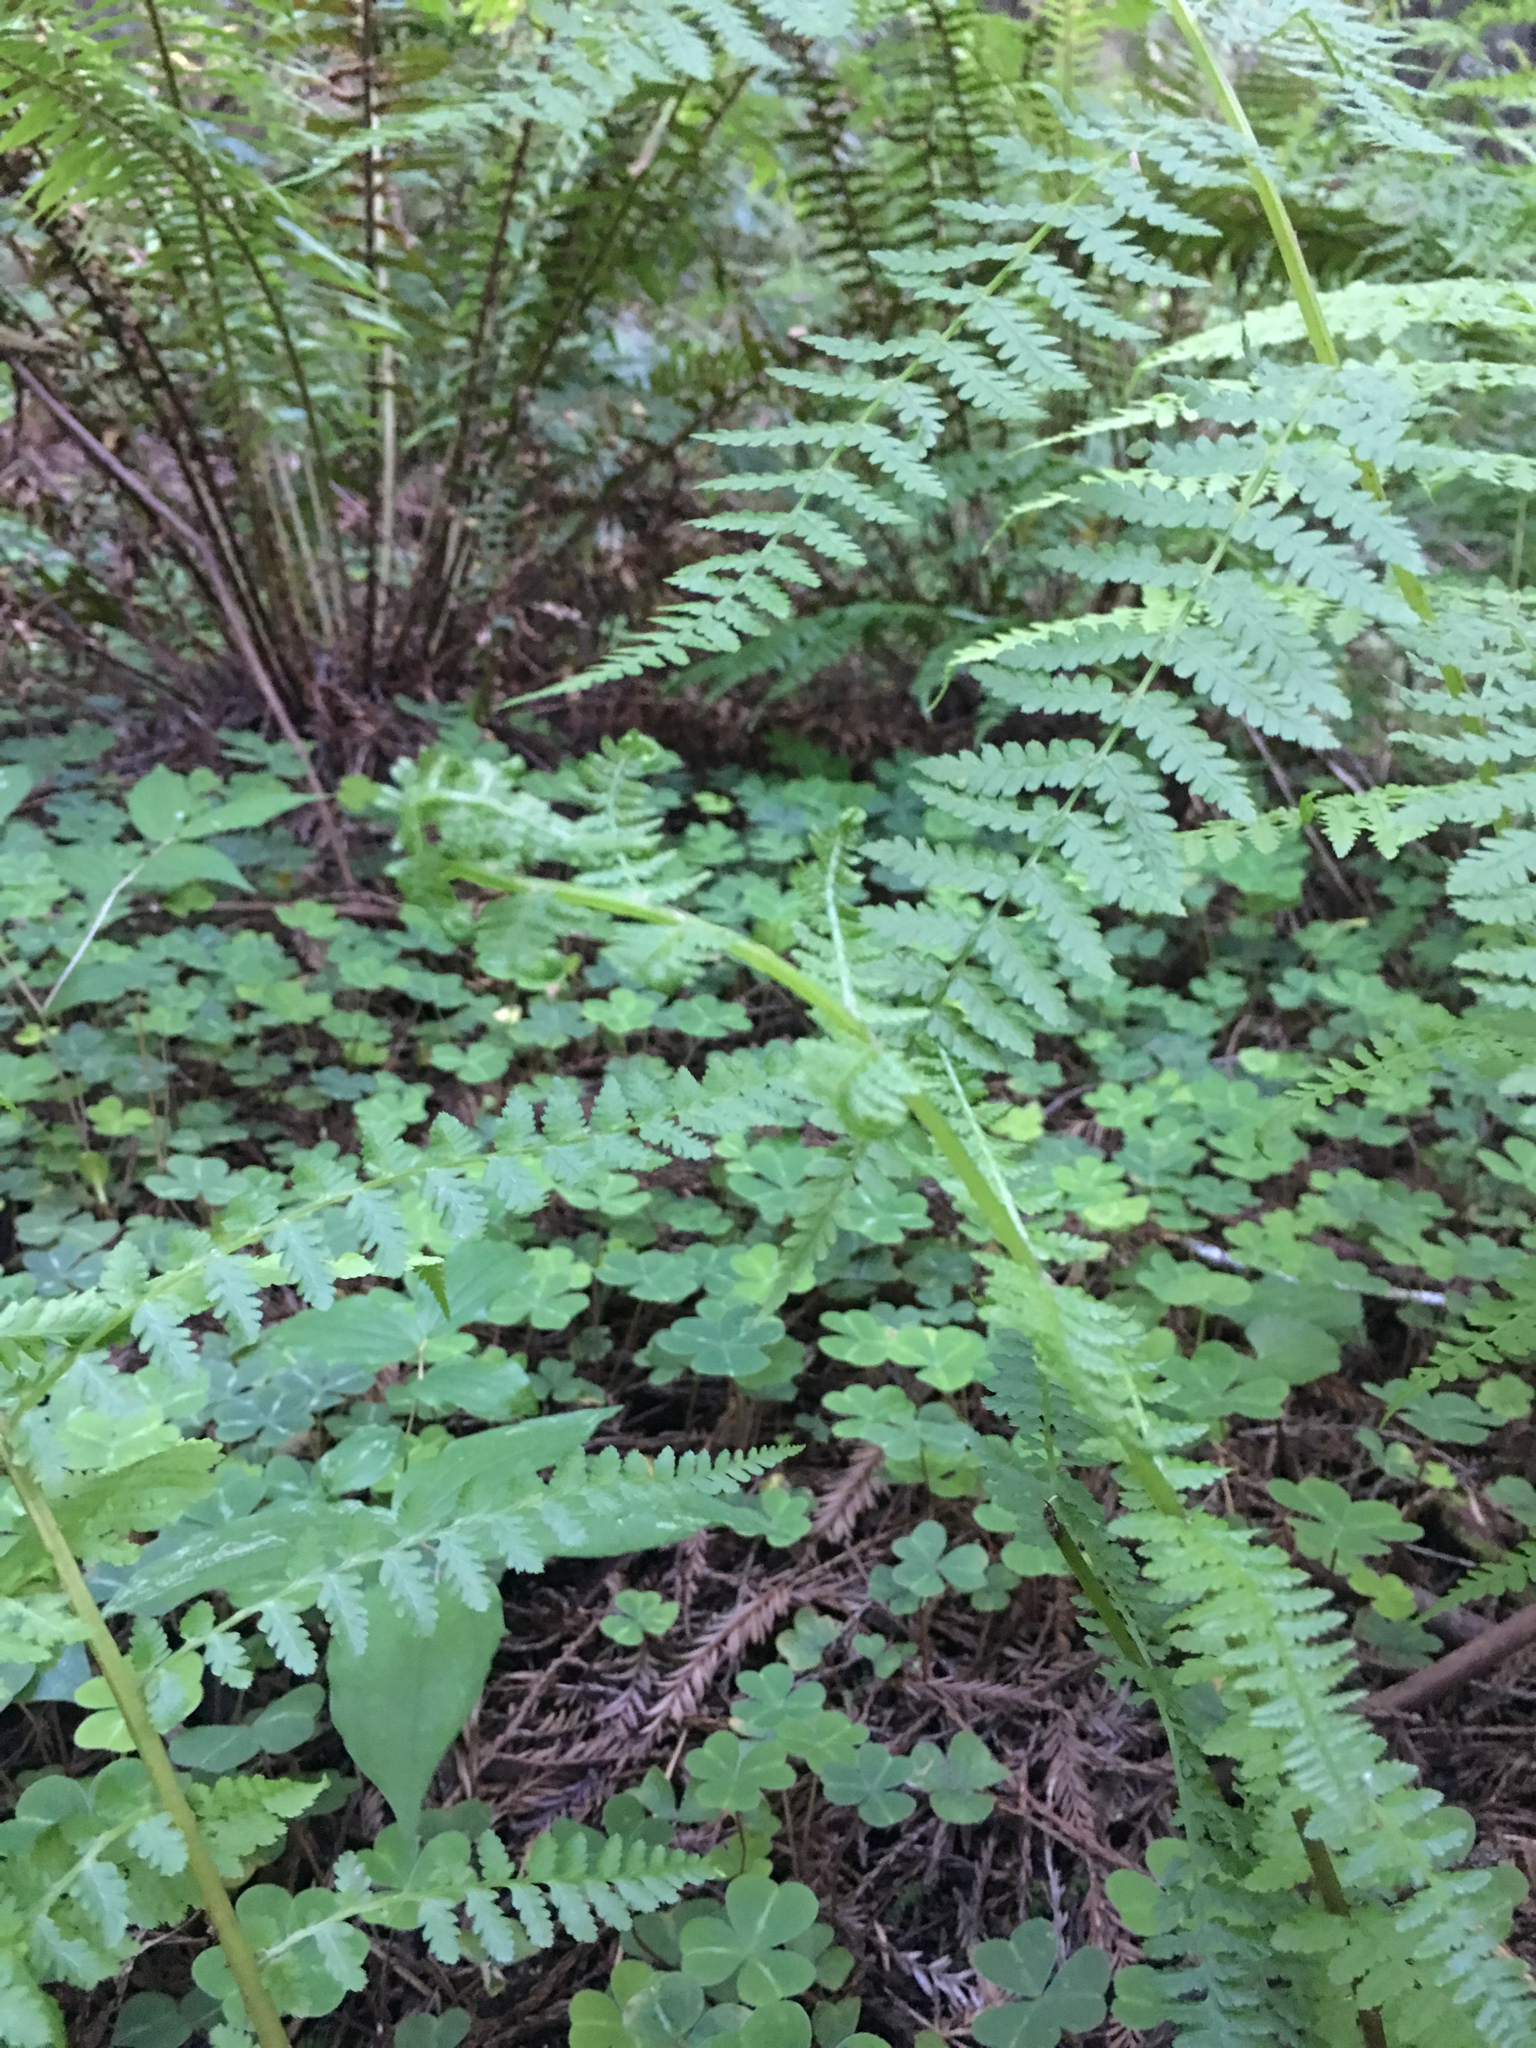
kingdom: Plantae
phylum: Tracheophyta
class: Polypodiopsida
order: Polypodiales
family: Athyriaceae
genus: Athyrium
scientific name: Athyrium filix-femina
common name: Lady fern
